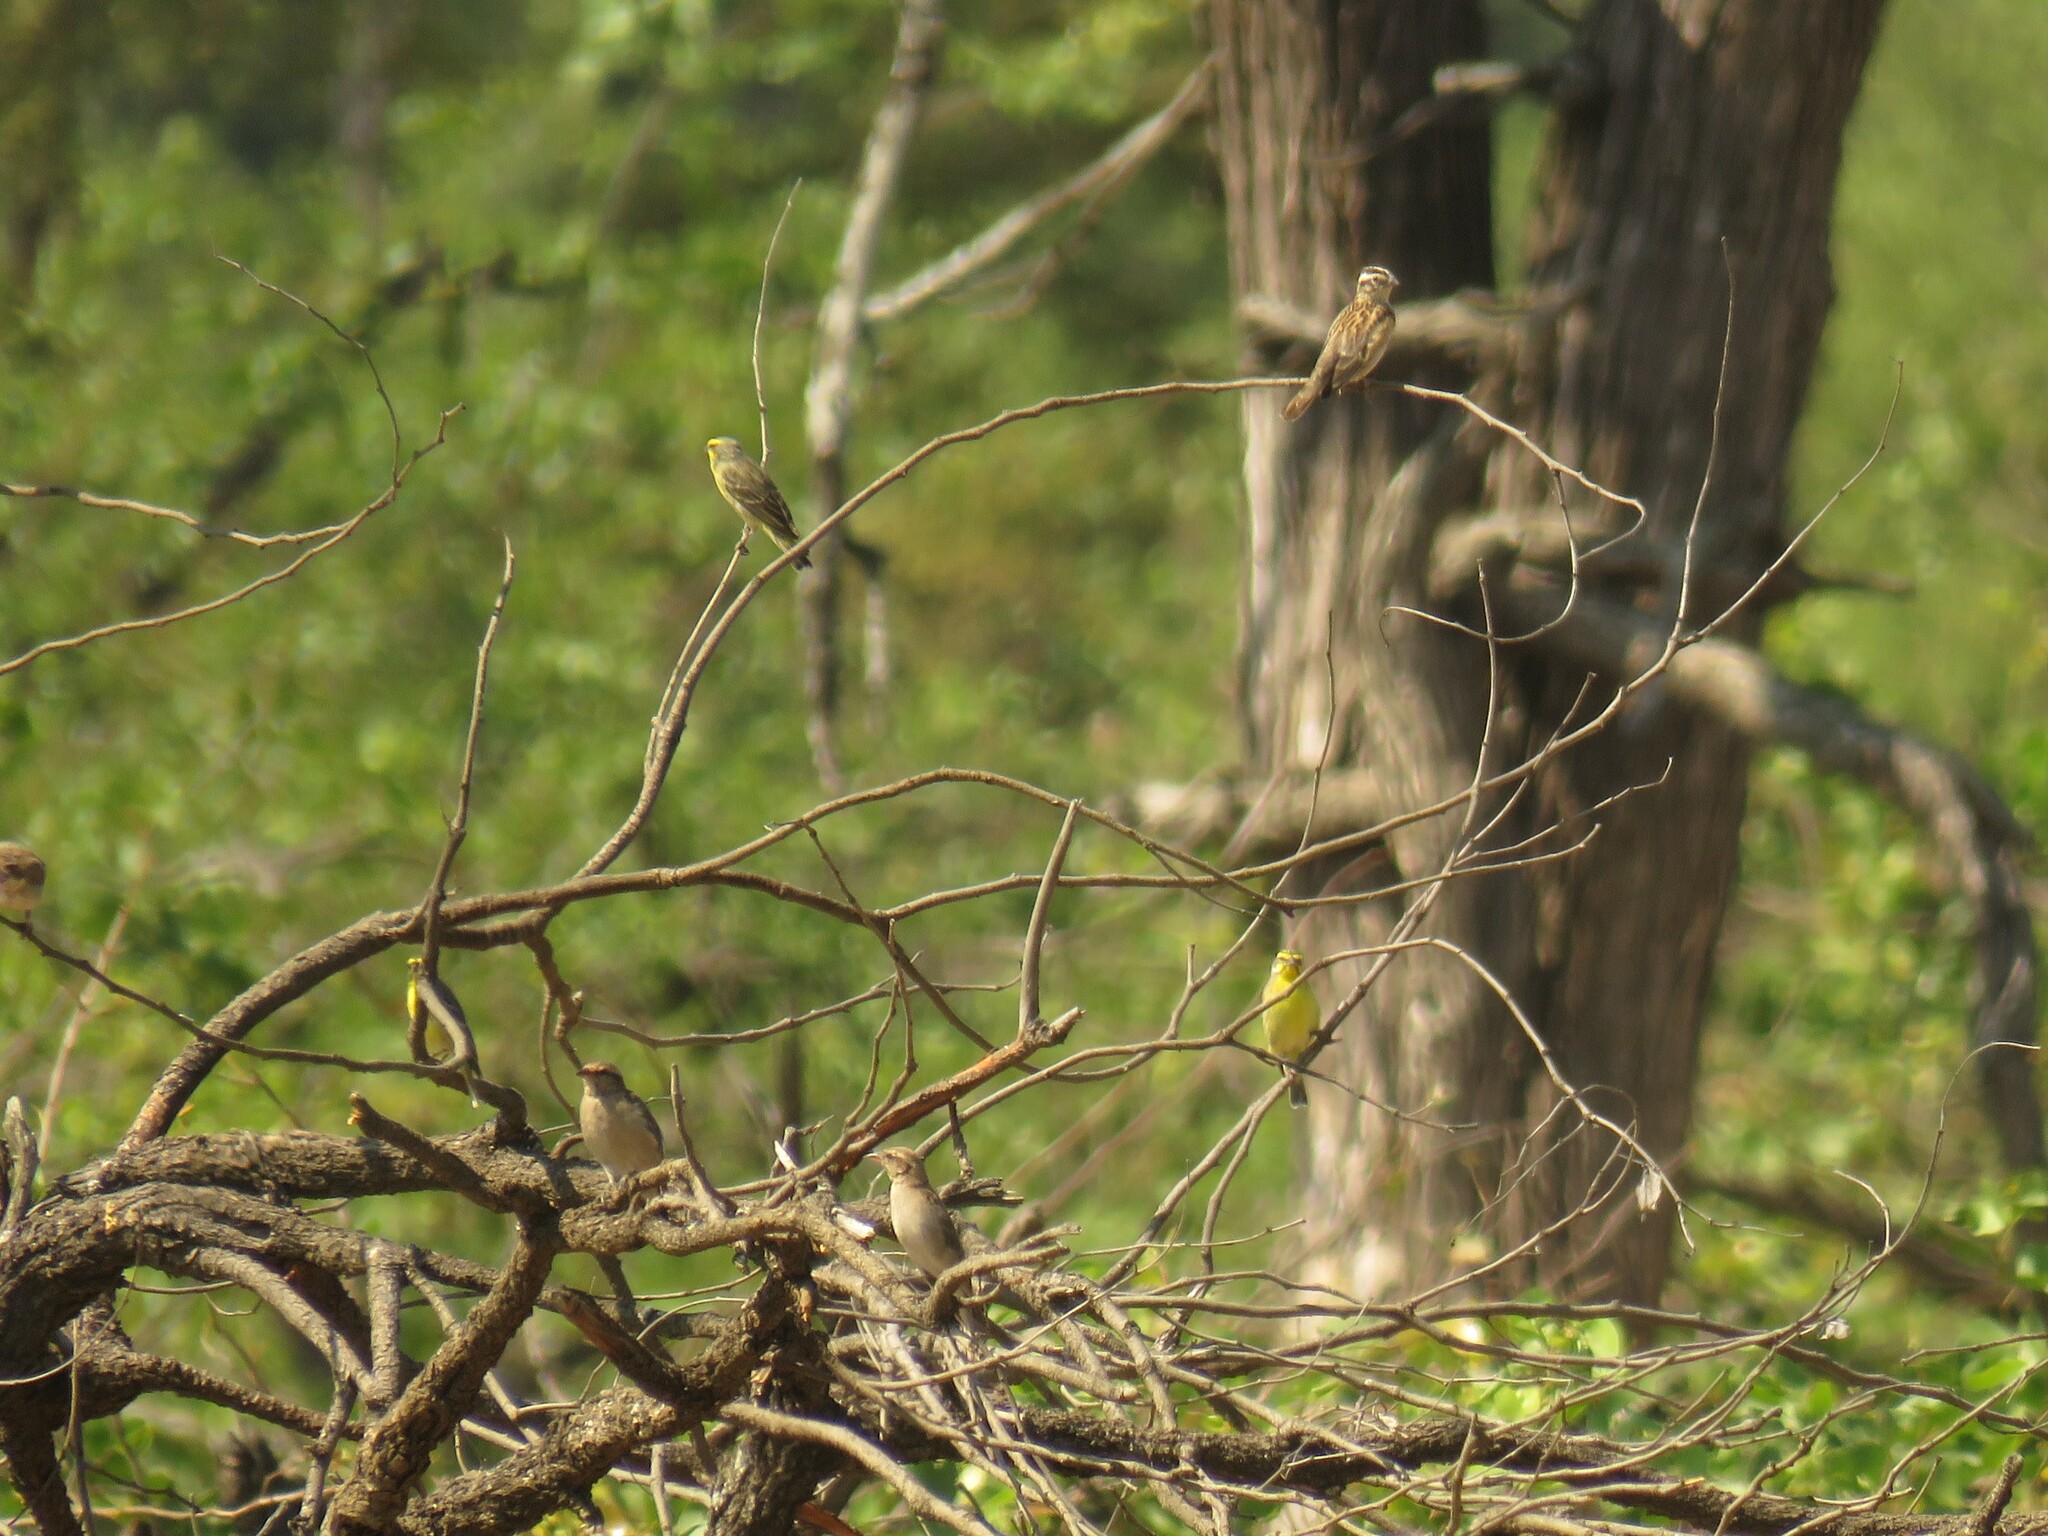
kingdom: Animalia
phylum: Chordata
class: Aves
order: Passeriformes
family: Fringillidae
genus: Crithagra
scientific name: Crithagra mozambica
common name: Yellow-fronted canary
